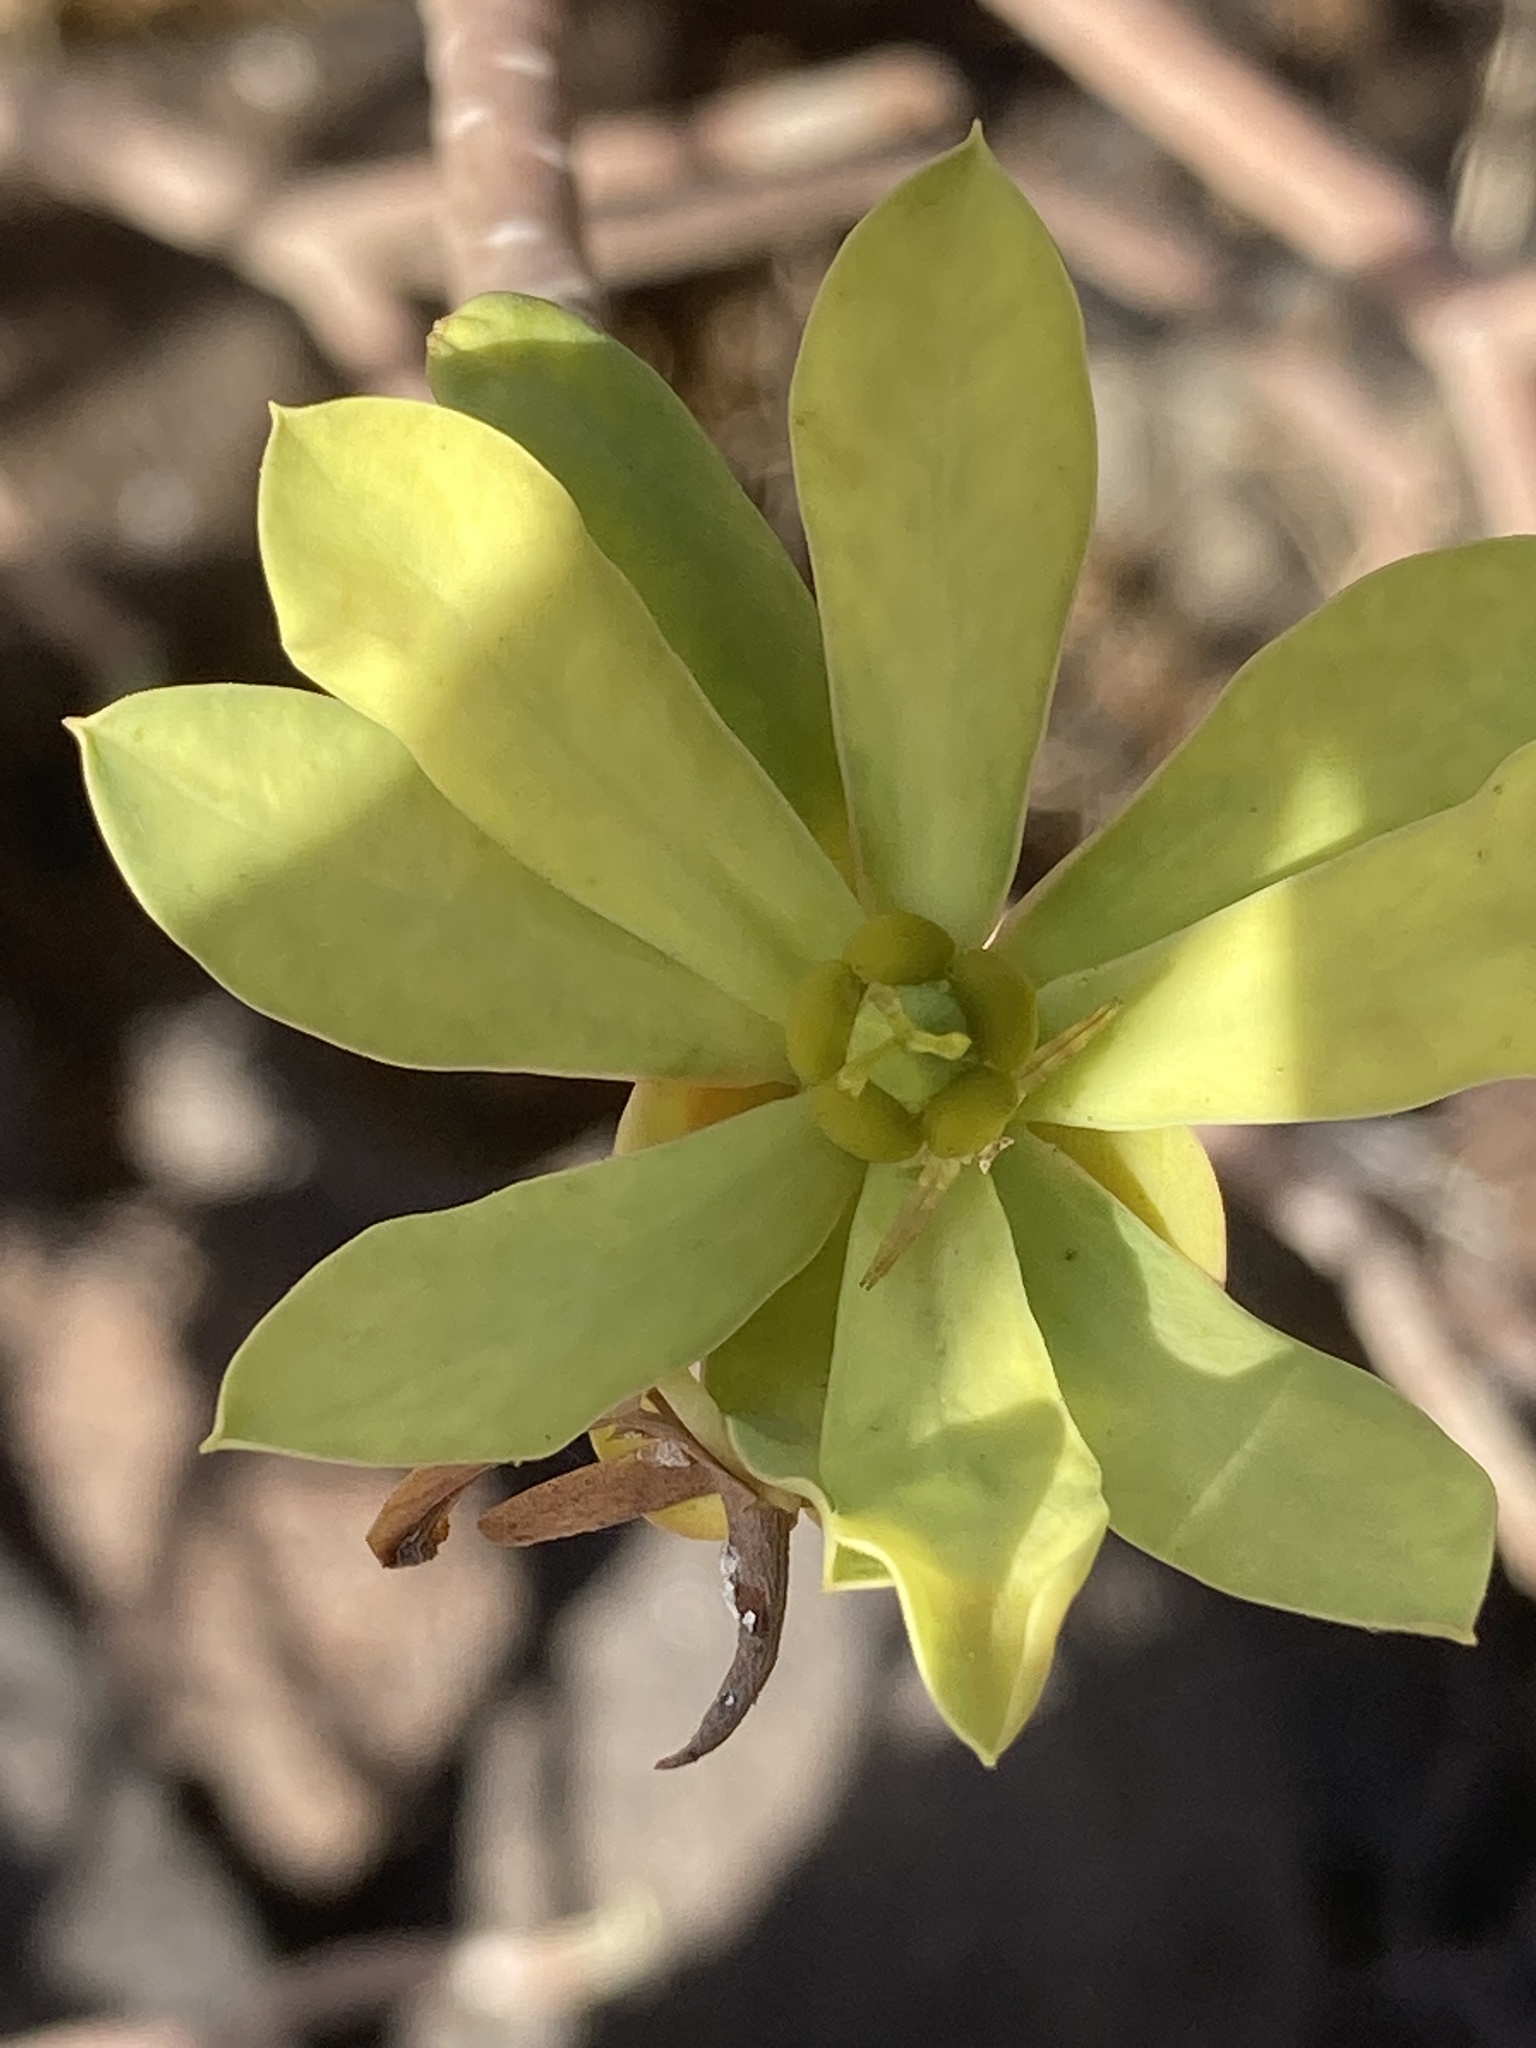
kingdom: Plantae
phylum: Tracheophyta
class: Magnoliopsida
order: Malpighiales
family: Euphorbiaceae
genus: Euphorbia
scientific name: Euphorbia balsamifera
